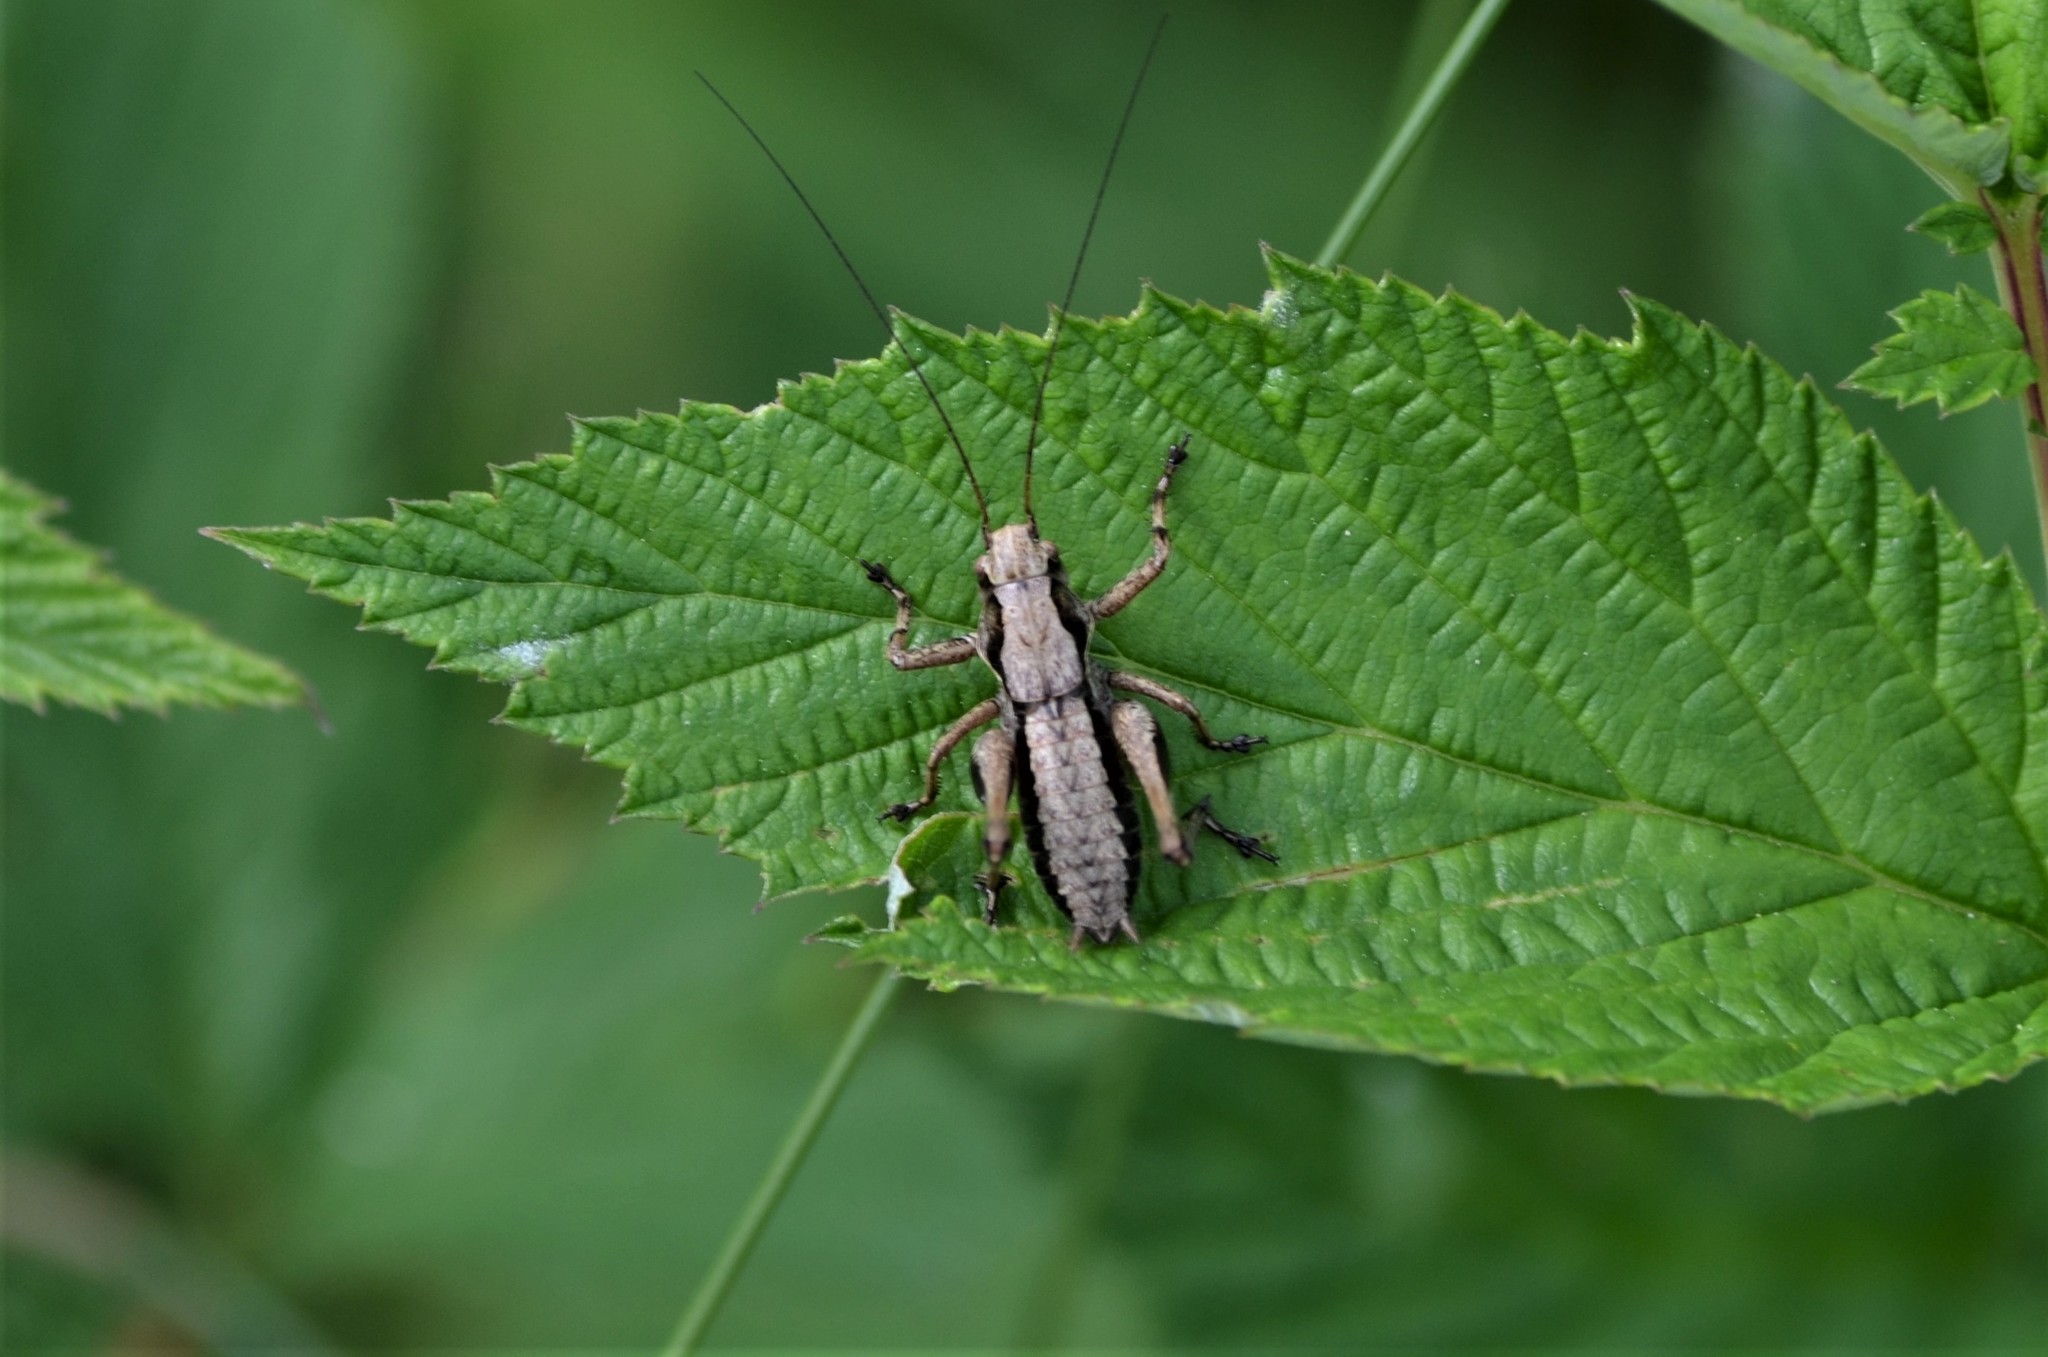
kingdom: Animalia
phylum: Arthropoda
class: Insecta
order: Orthoptera
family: Tettigoniidae
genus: Pholidoptera
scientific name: Pholidoptera griseoaptera
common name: Dark bush-cricket
